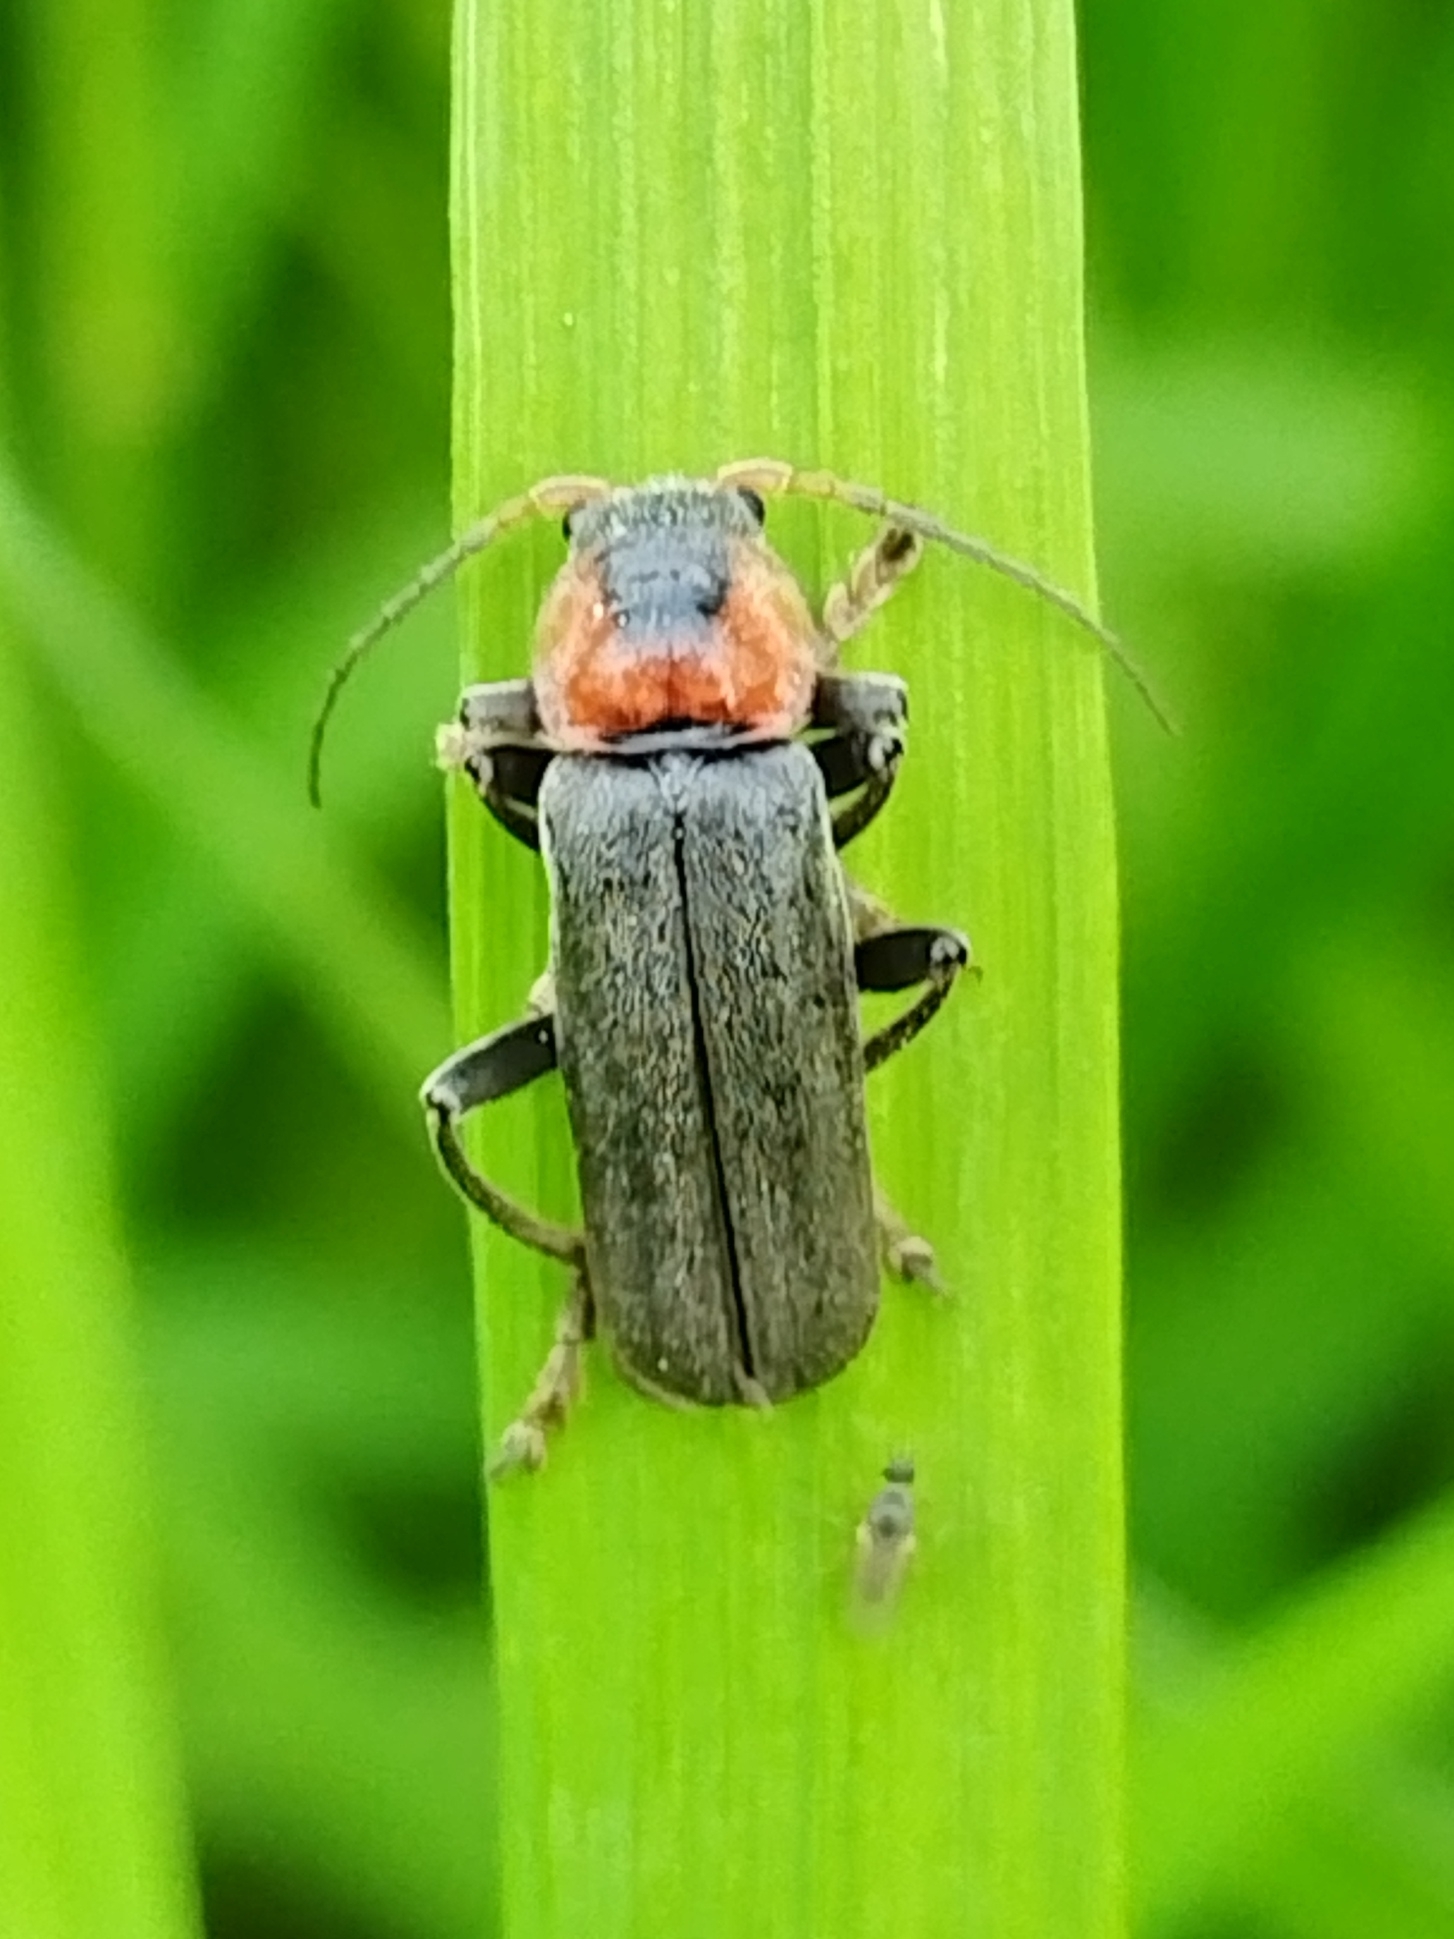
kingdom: Animalia
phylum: Arthropoda
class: Insecta
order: Coleoptera
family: Cantharidae
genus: Cantharis
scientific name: Cantharis fusca
